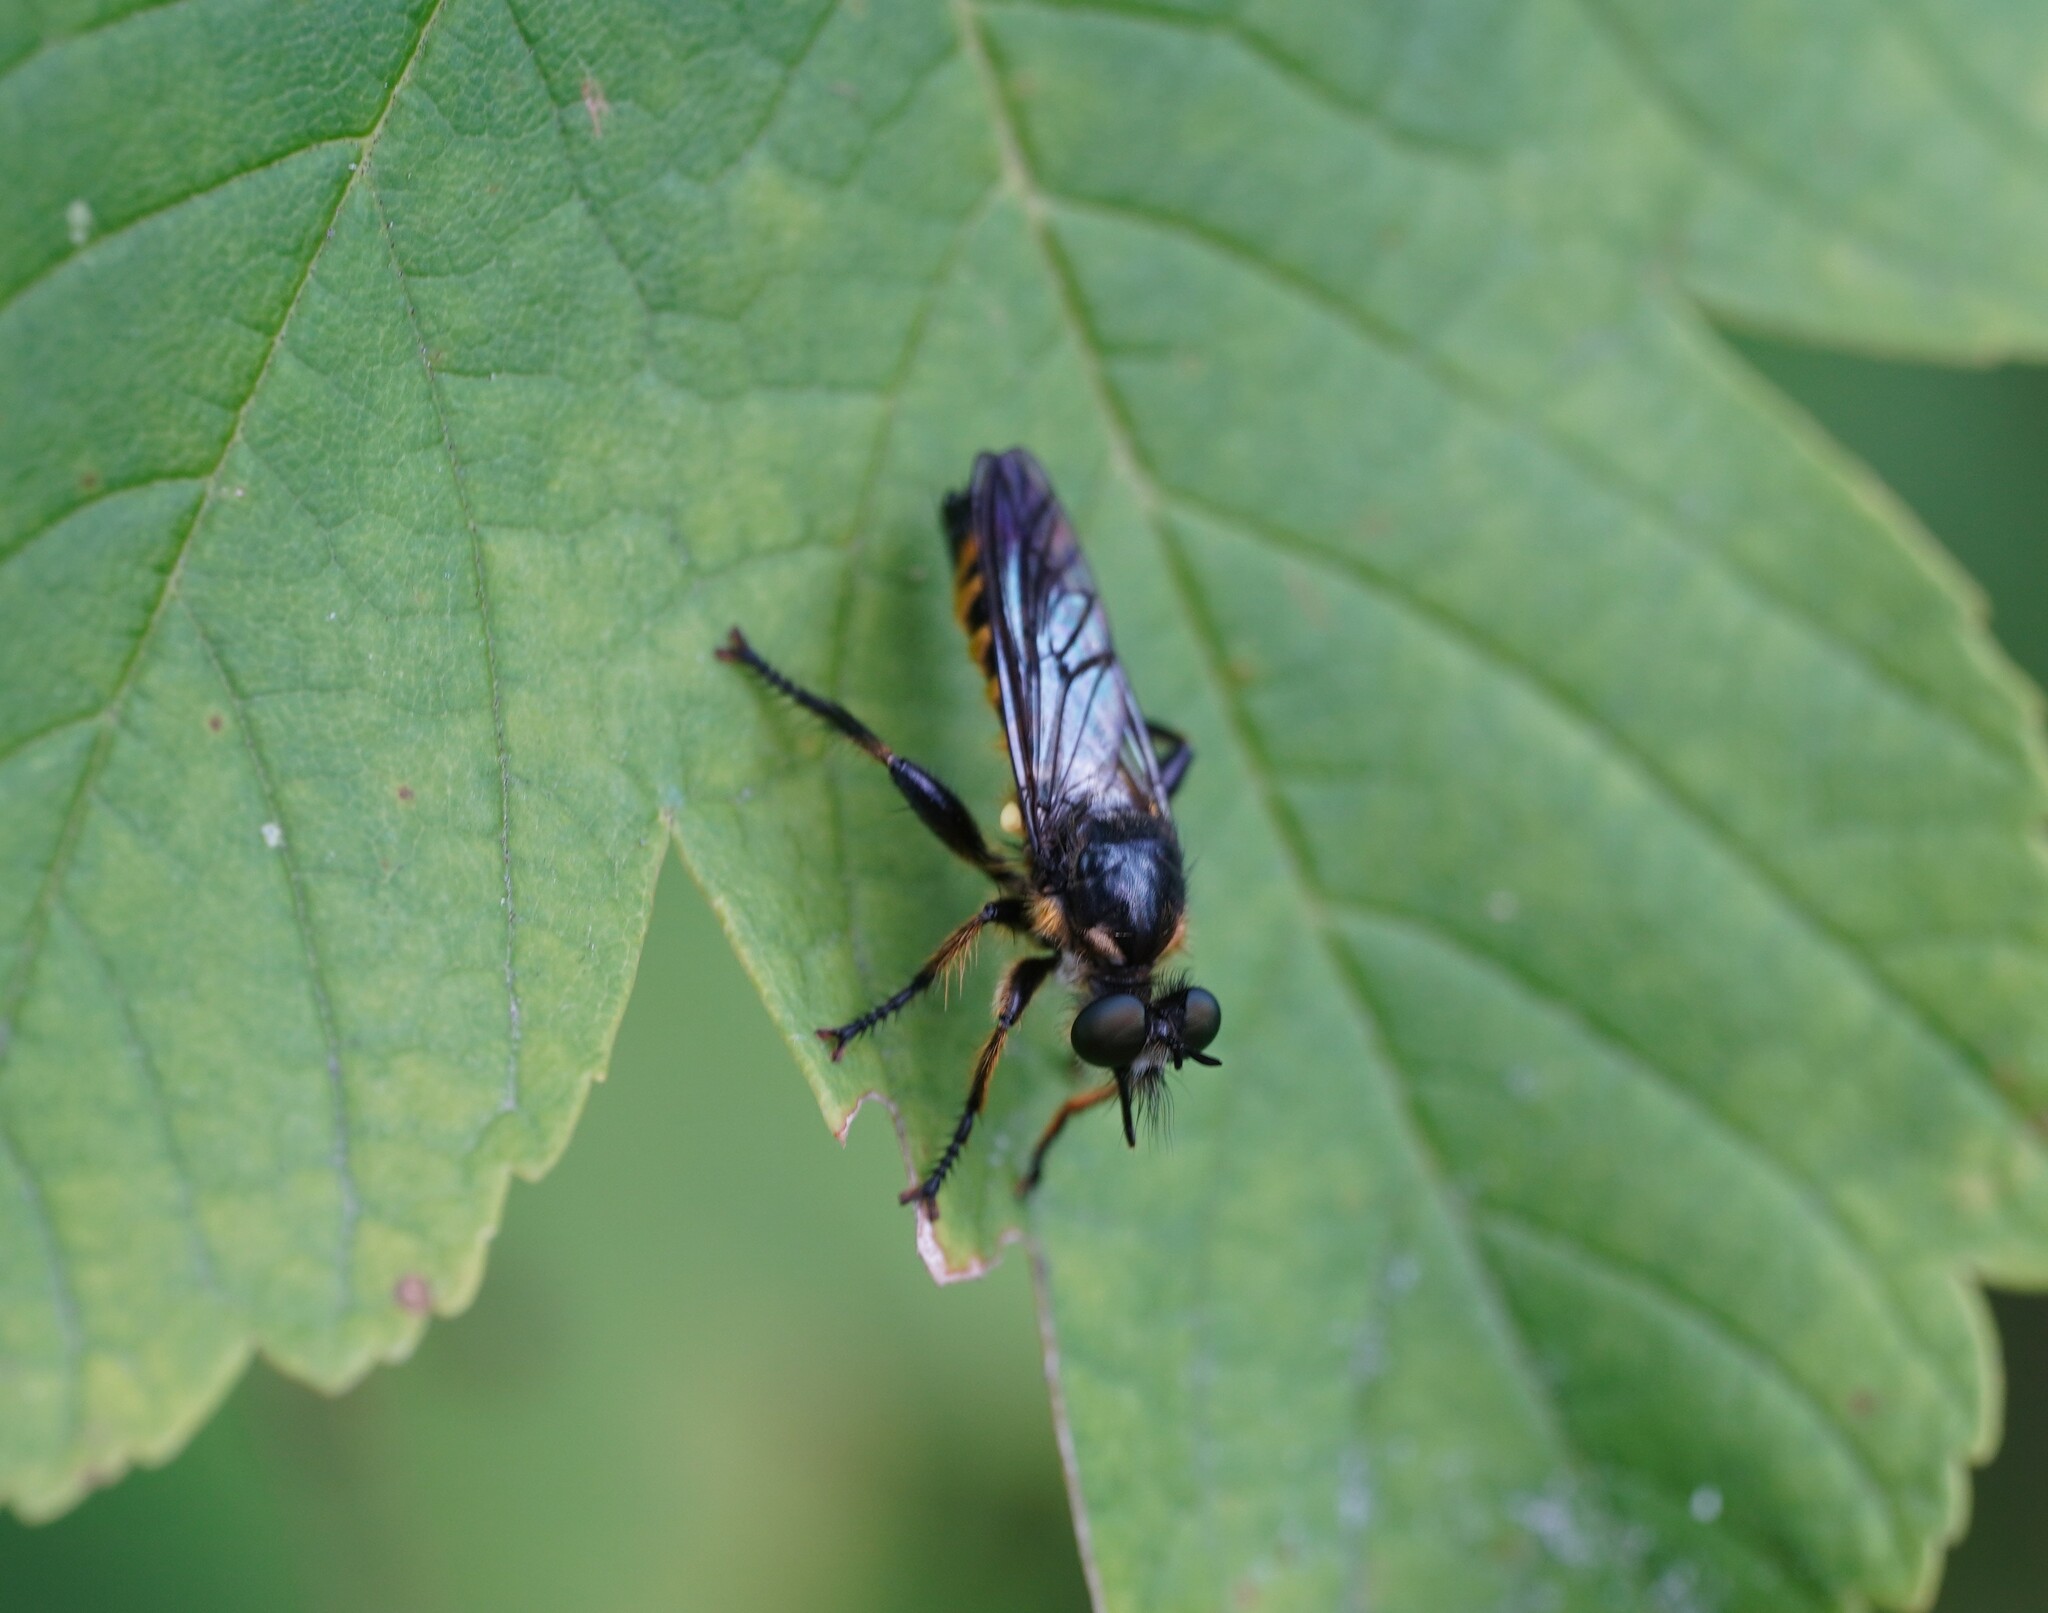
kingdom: Animalia
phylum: Arthropoda
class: Insecta
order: Diptera
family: Asilidae
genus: Lamyra
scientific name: Lamyra fimbriata
